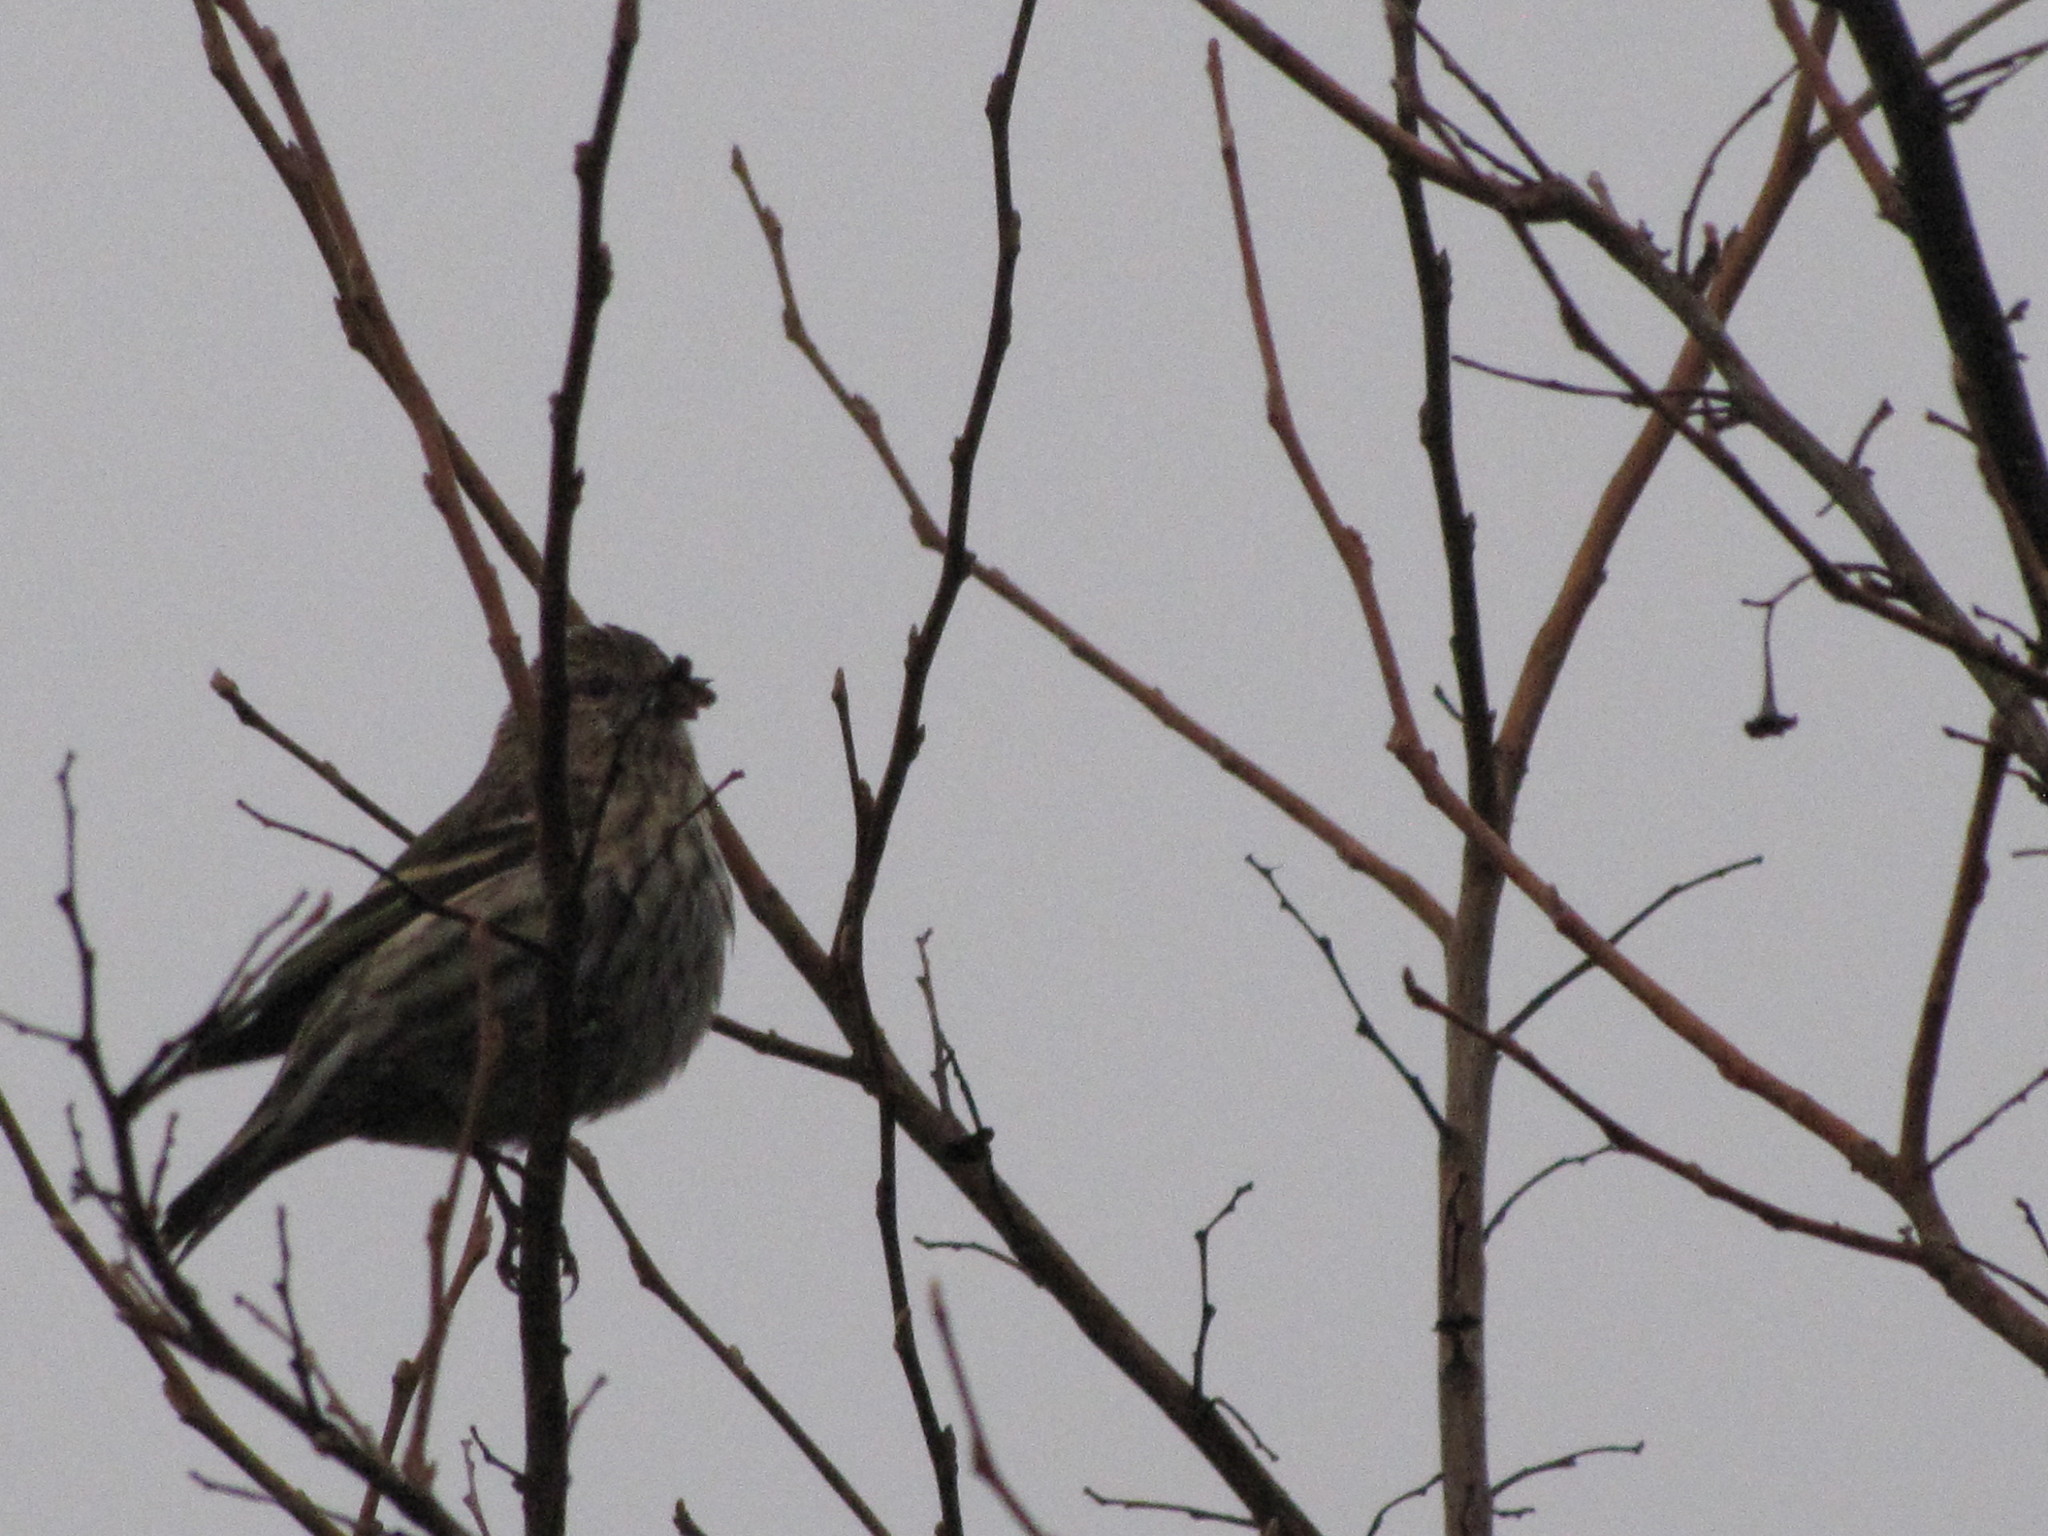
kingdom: Animalia
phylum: Chordata
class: Aves
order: Passeriformes
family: Fringillidae
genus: Spinus
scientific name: Spinus pinus
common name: Pine siskin
